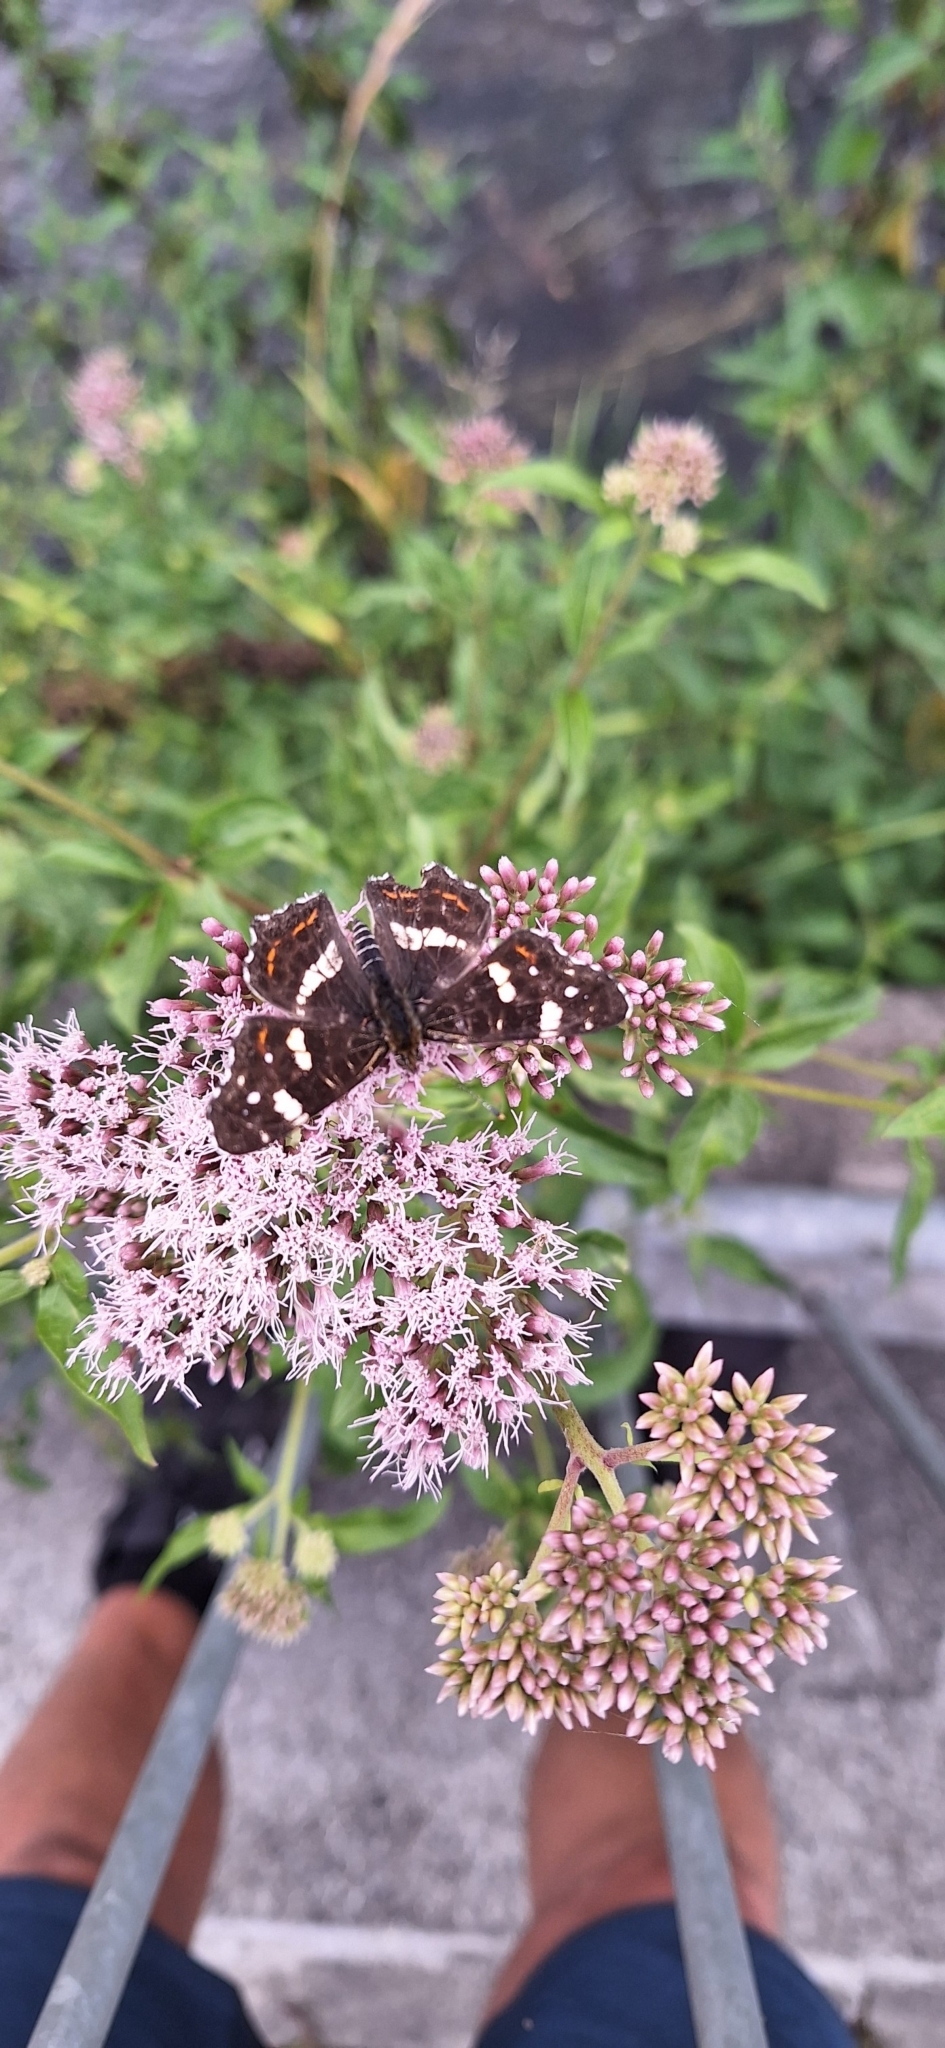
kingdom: Animalia
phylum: Arthropoda
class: Insecta
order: Lepidoptera
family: Nymphalidae
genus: Araschnia
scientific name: Araschnia levana
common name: Map butterfly
